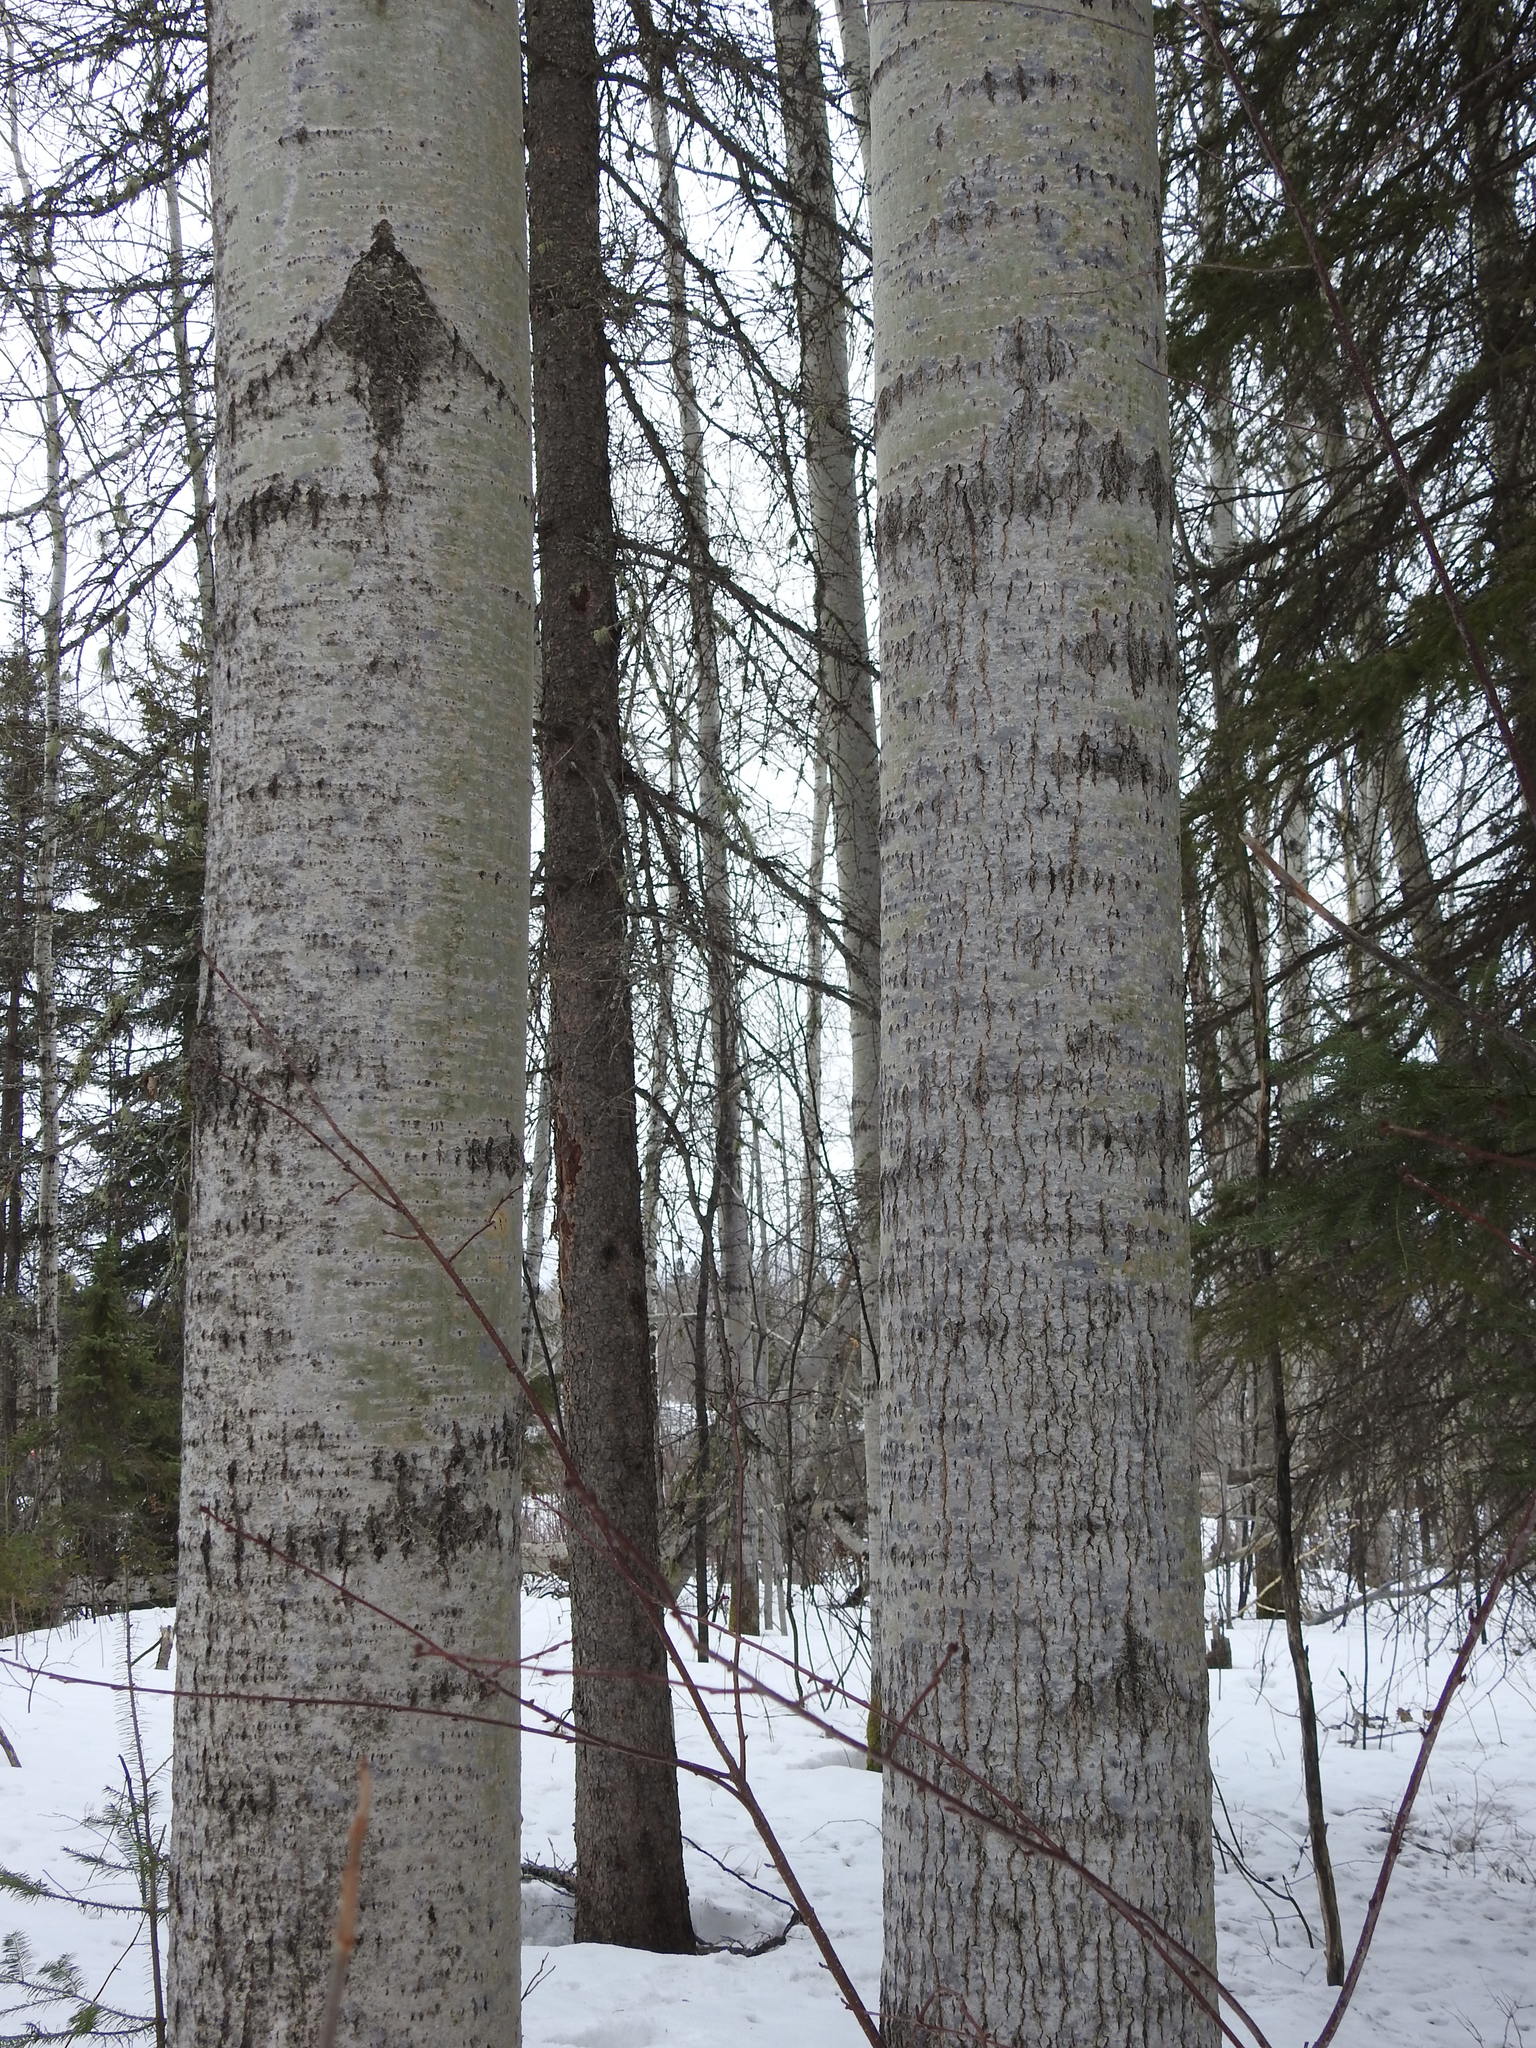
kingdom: Plantae
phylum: Tracheophyta
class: Magnoliopsida
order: Malpighiales
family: Salicaceae
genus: Populus
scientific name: Populus tremuloides
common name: Quaking aspen
